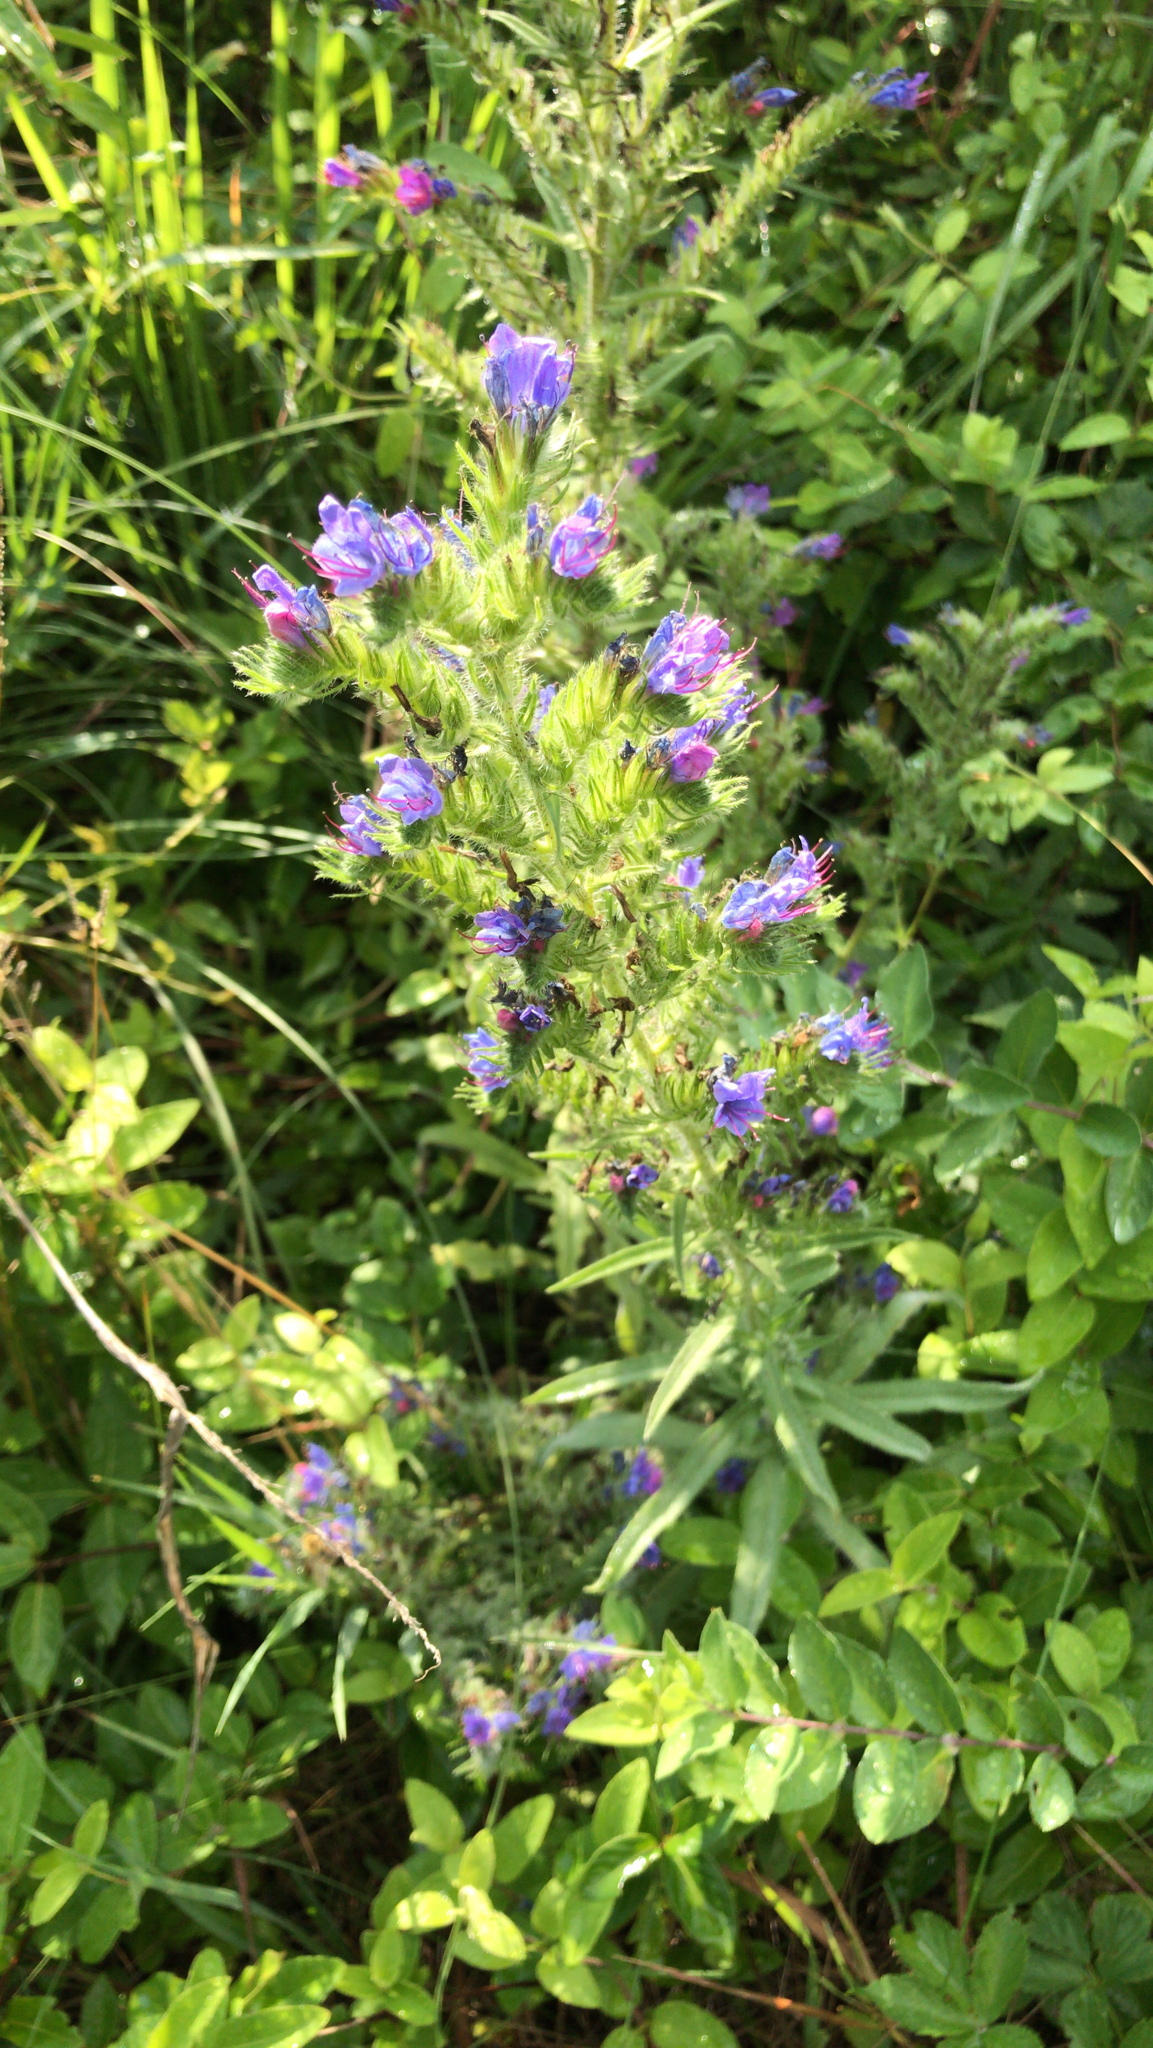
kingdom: Plantae
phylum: Tracheophyta
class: Magnoliopsida
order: Boraginales
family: Boraginaceae
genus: Echium
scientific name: Echium vulgare
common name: Common viper's bugloss
